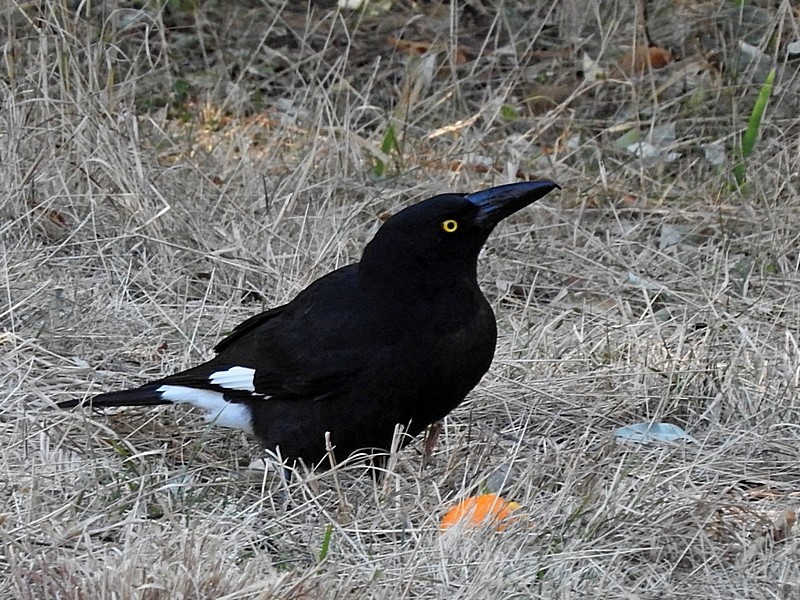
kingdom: Animalia
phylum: Chordata
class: Aves
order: Passeriformes
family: Cracticidae
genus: Strepera
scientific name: Strepera graculina
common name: Pied currawong
